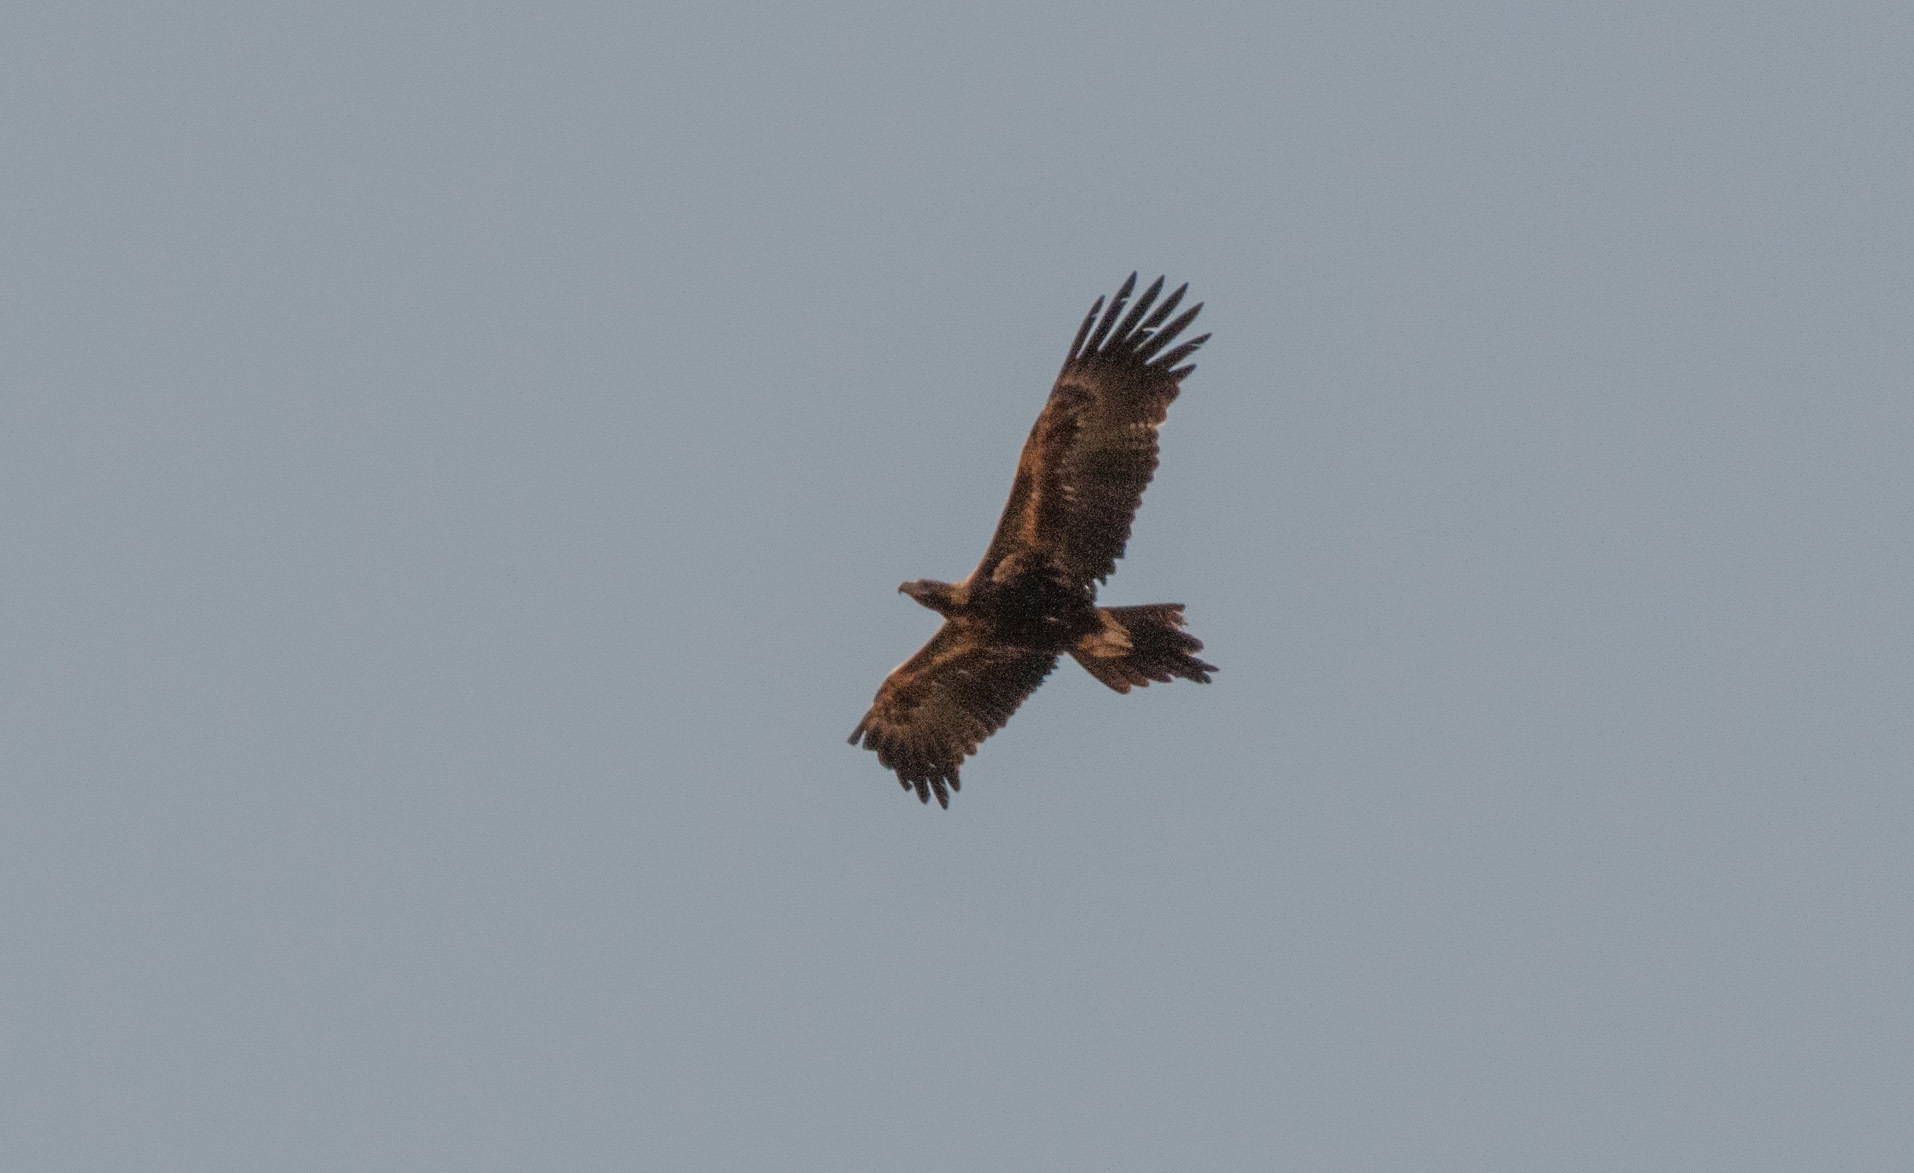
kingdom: Animalia
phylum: Chordata
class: Aves
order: Accipitriformes
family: Accipitridae
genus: Aquila
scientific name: Aquila audax
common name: Wedge-tailed eagle
